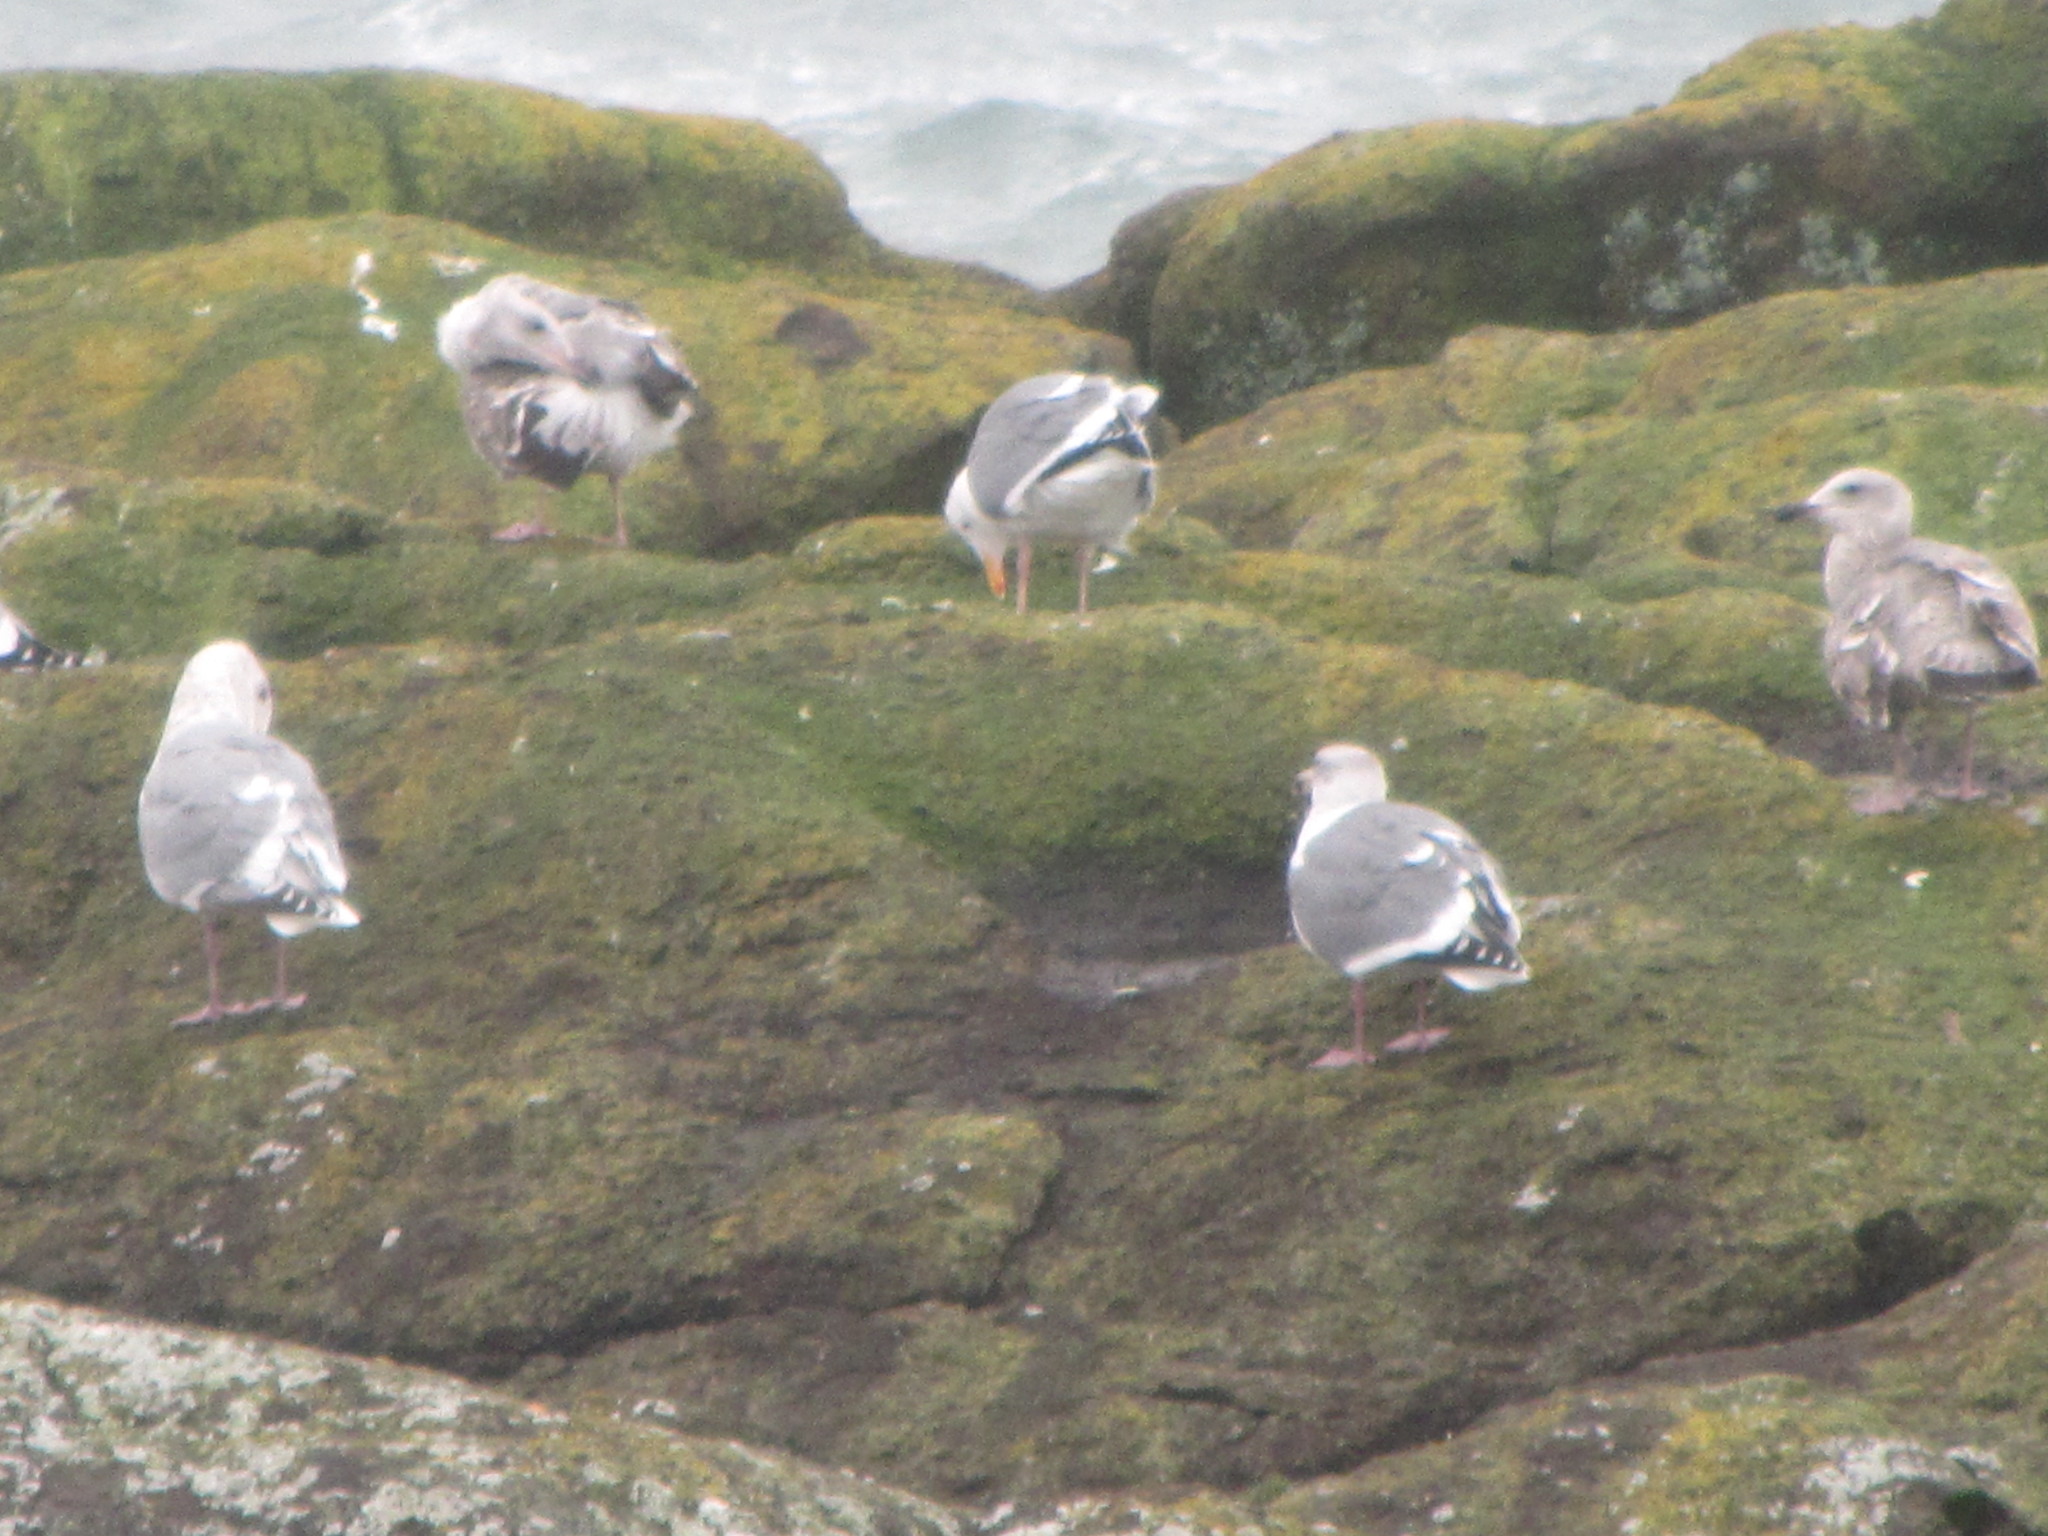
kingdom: Animalia
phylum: Chordata
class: Aves
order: Charadriiformes
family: Laridae
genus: Larus
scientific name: Larus occidentalis
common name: Western gull
